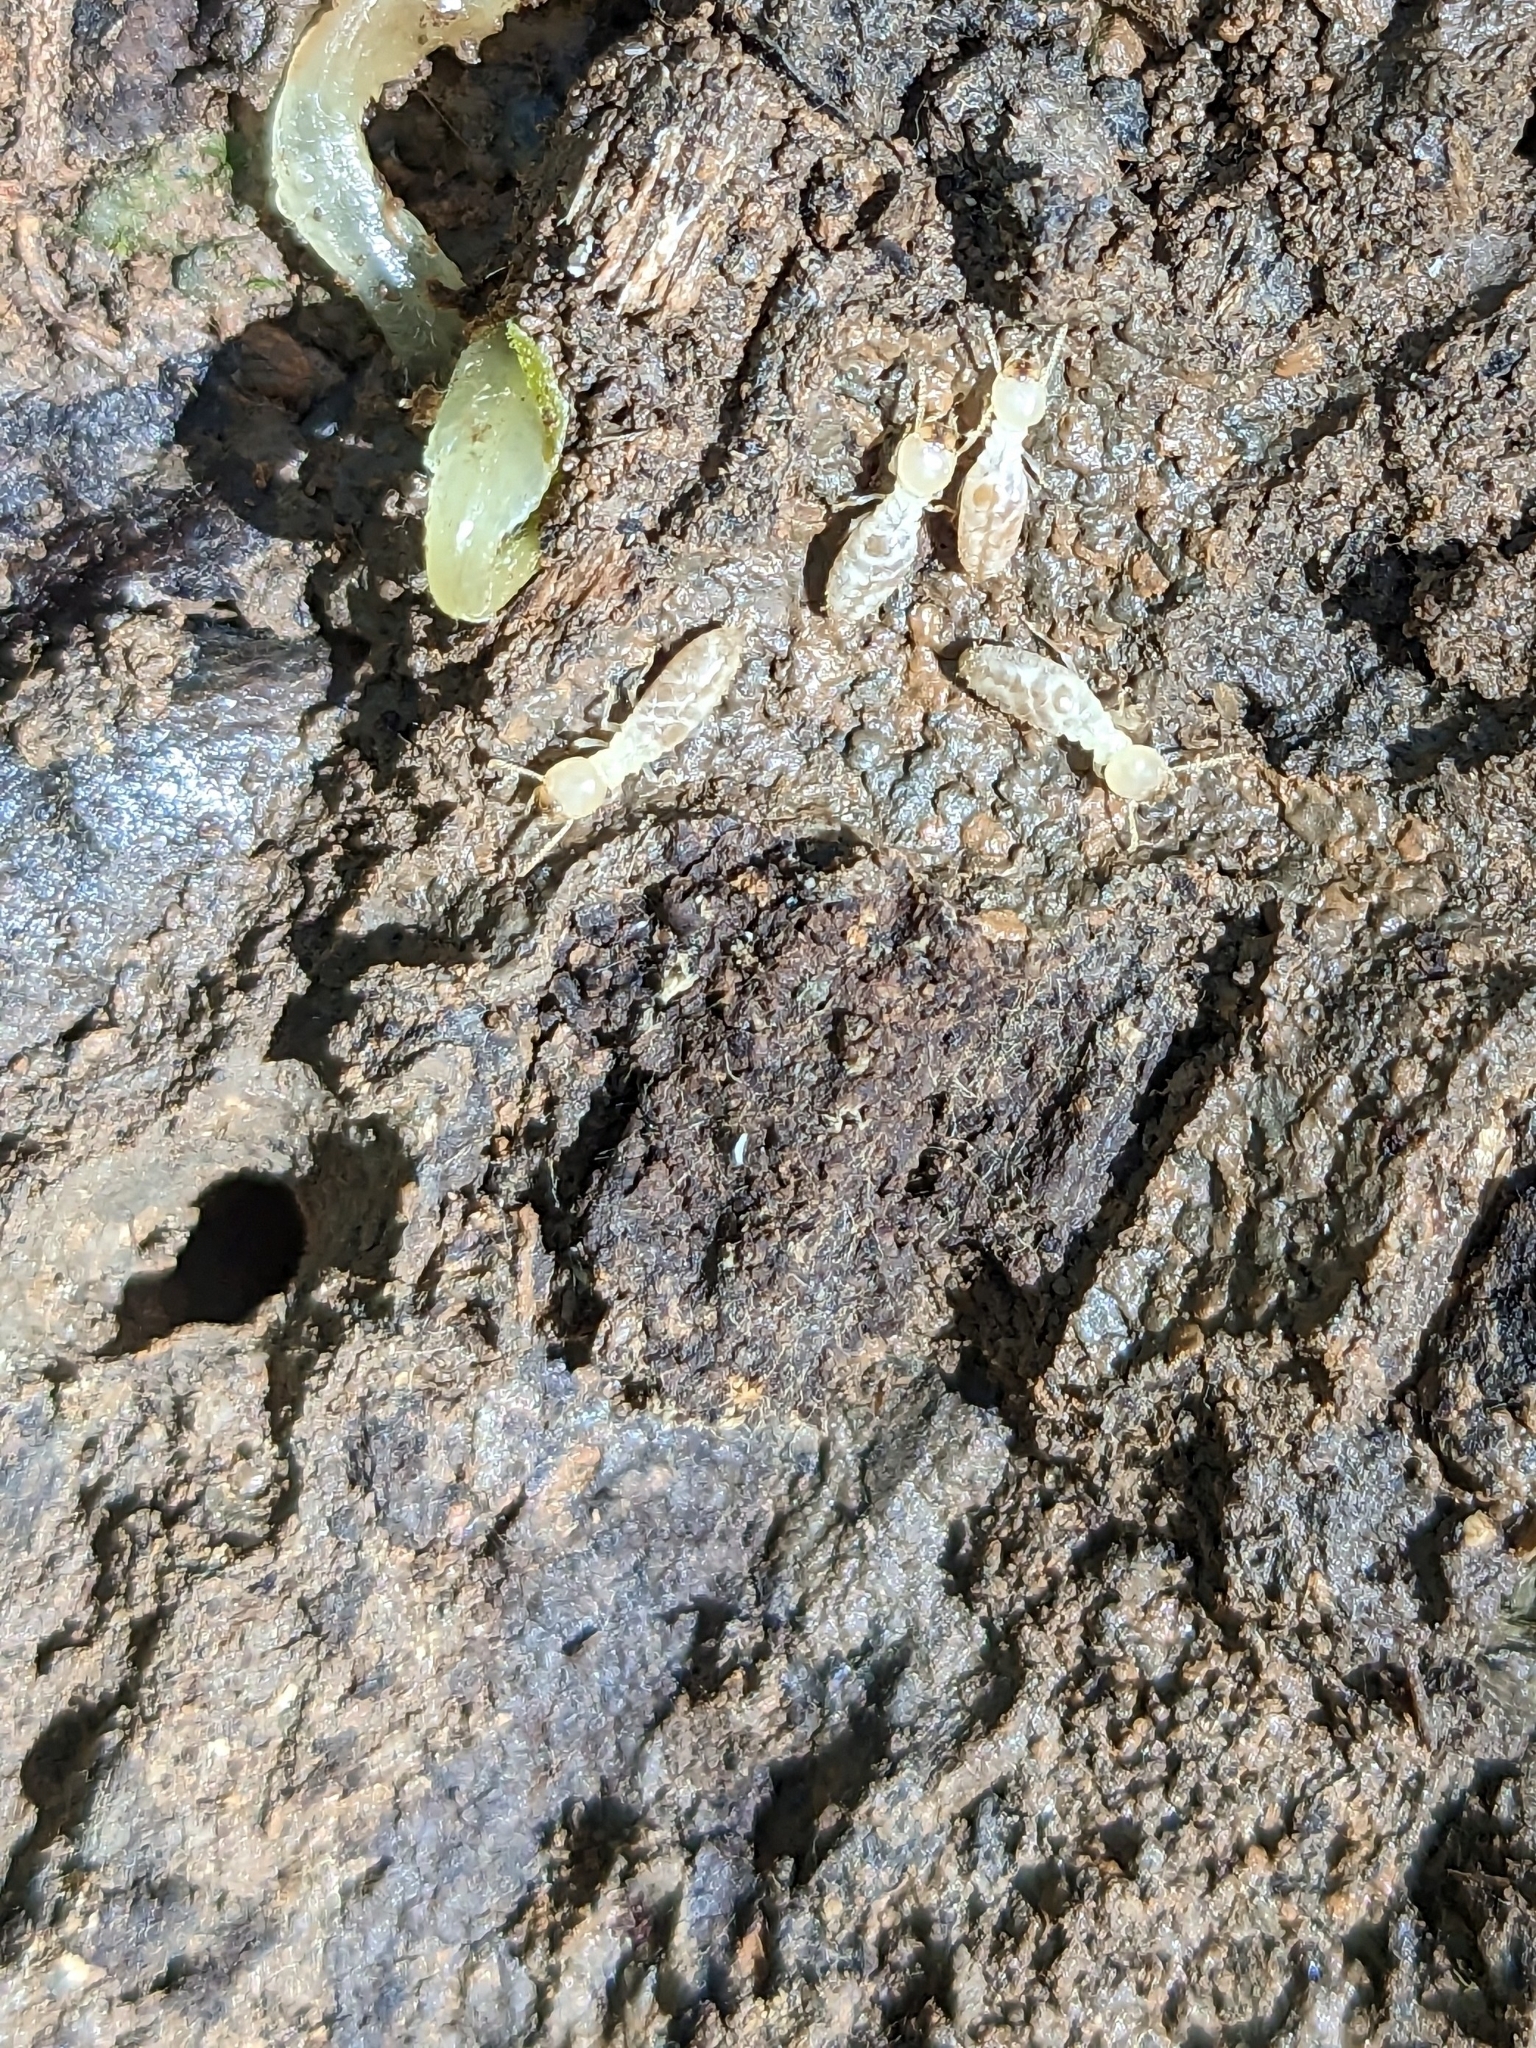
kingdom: Animalia
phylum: Arthropoda
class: Insecta
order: Blattodea
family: Rhinotermitidae
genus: Reticulitermes
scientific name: Reticulitermes flavipes
